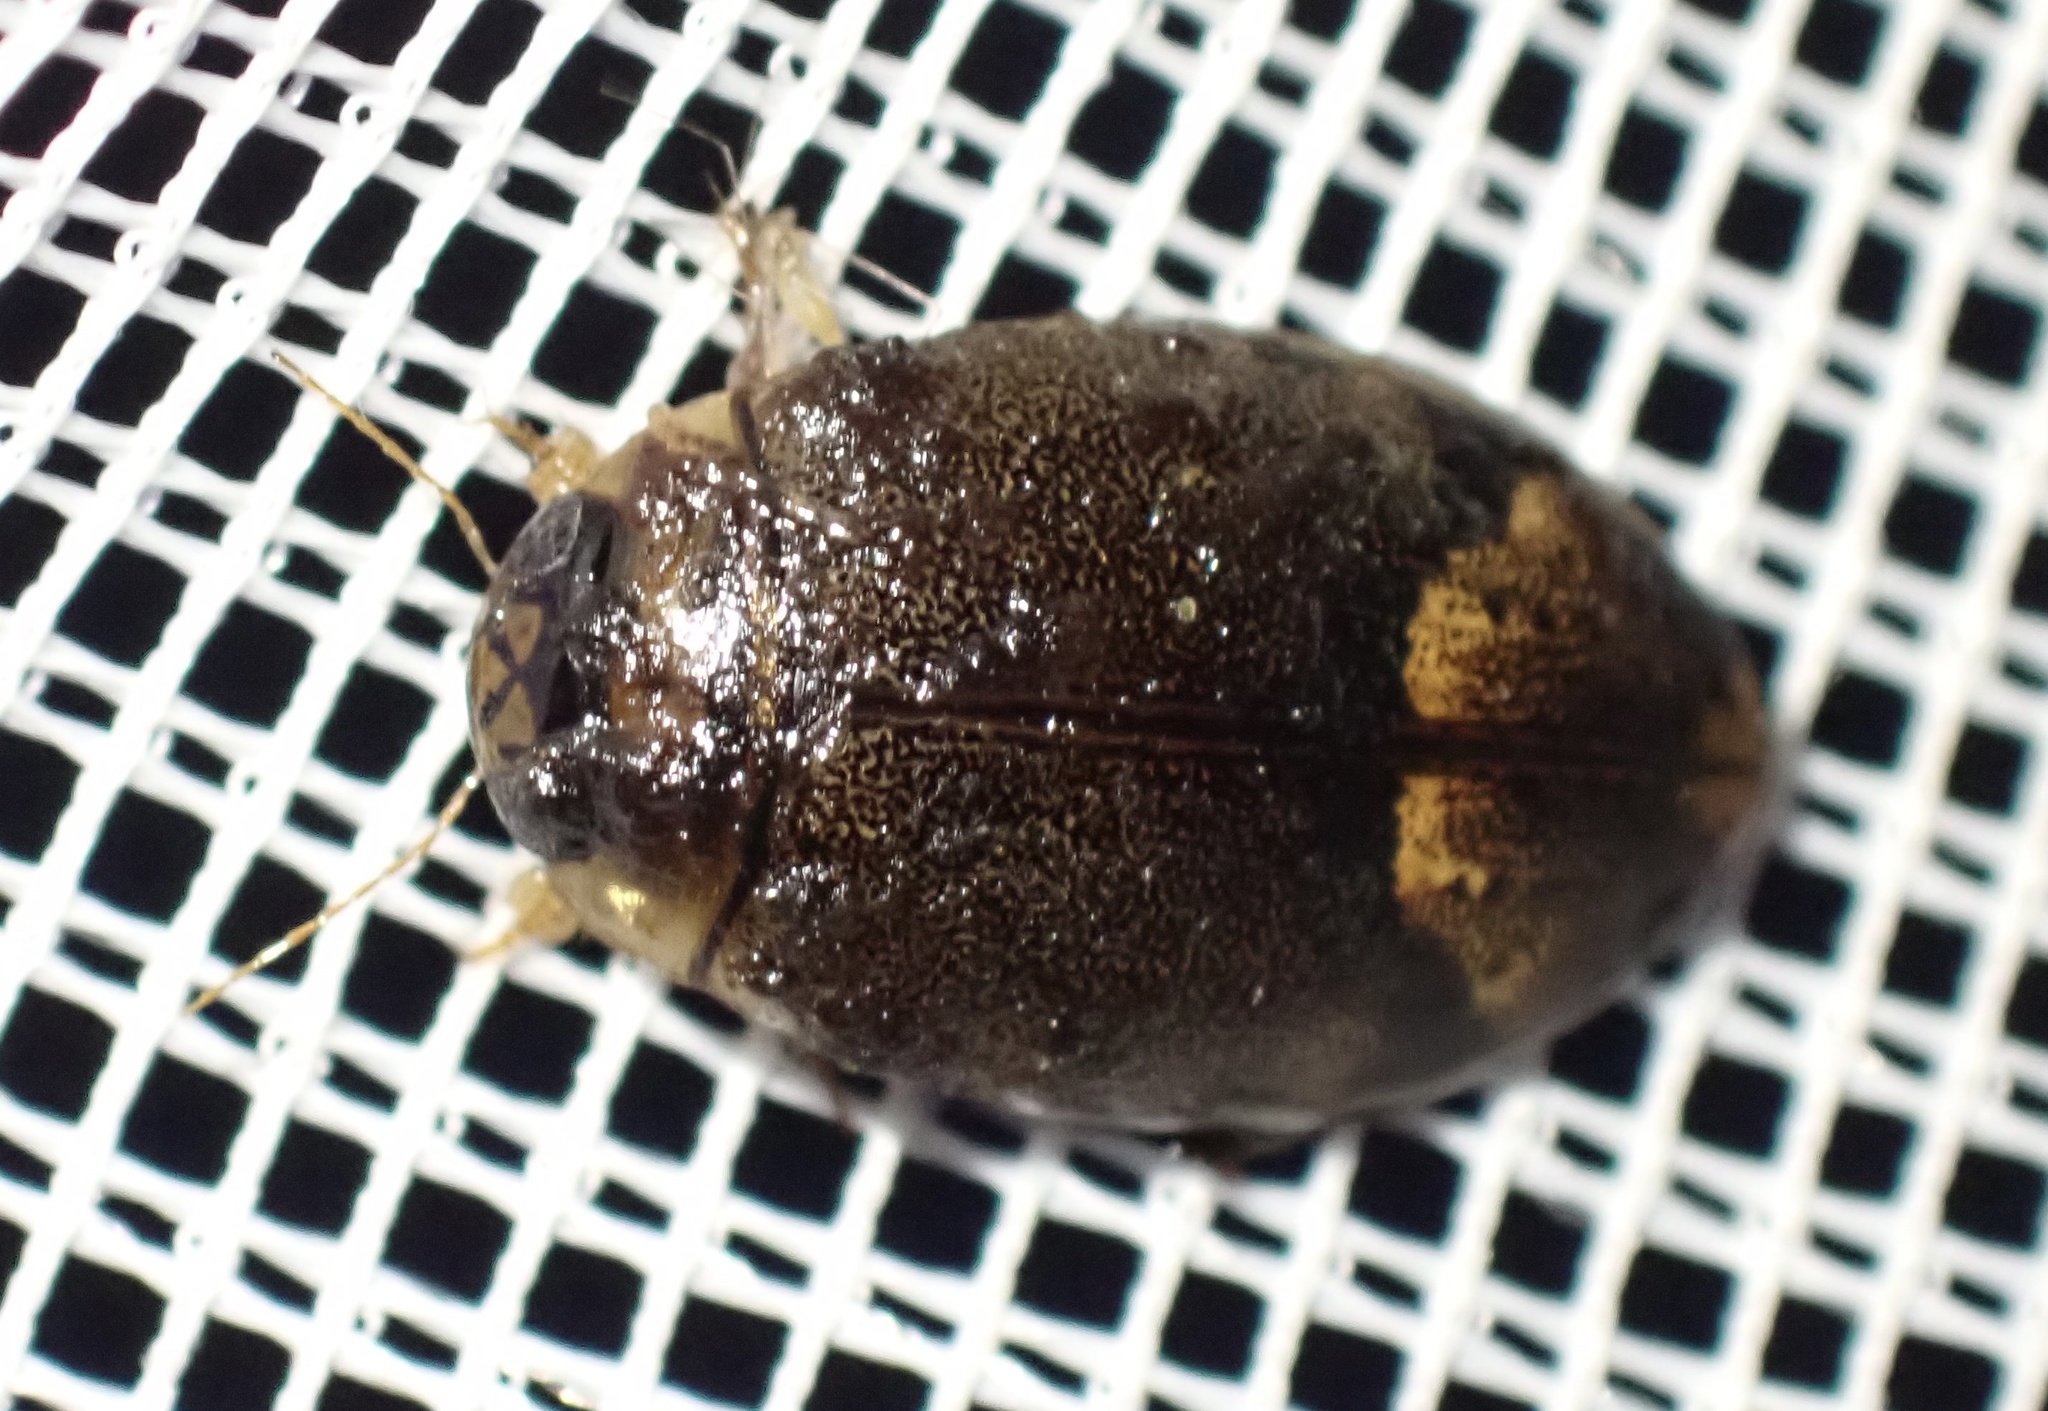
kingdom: Animalia
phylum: Arthropoda
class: Insecta
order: Coleoptera
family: Dytiscidae
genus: Rhantaticus
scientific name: Rhantaticus congestus
